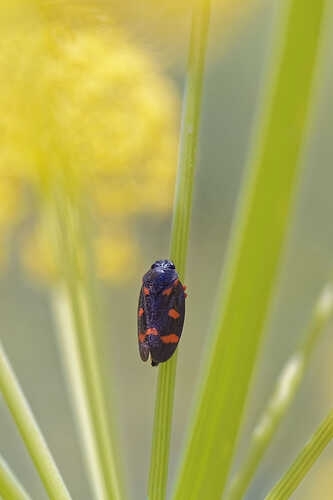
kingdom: Animalia
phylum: Arthropoda
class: Insecta
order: Hemiptera
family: Cercopidae
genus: Cercopis
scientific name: Cercopis intermedia
